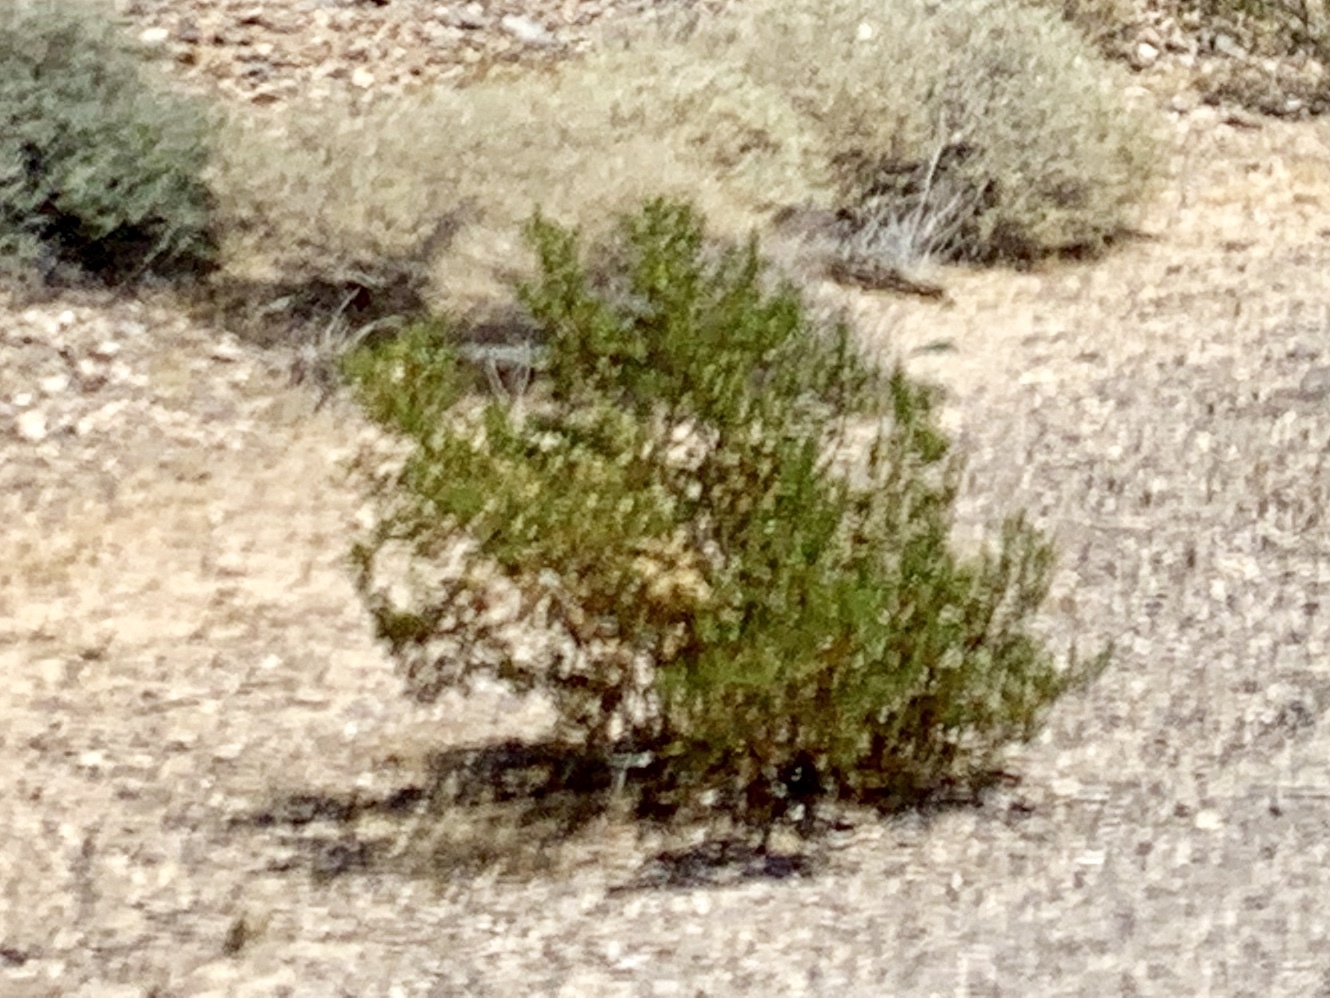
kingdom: Plantae
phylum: Tracheophyta
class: Magnoliopsida
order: Zygophyllales
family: Zygophyllaceae
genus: Larrea
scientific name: Larrea tridentata
